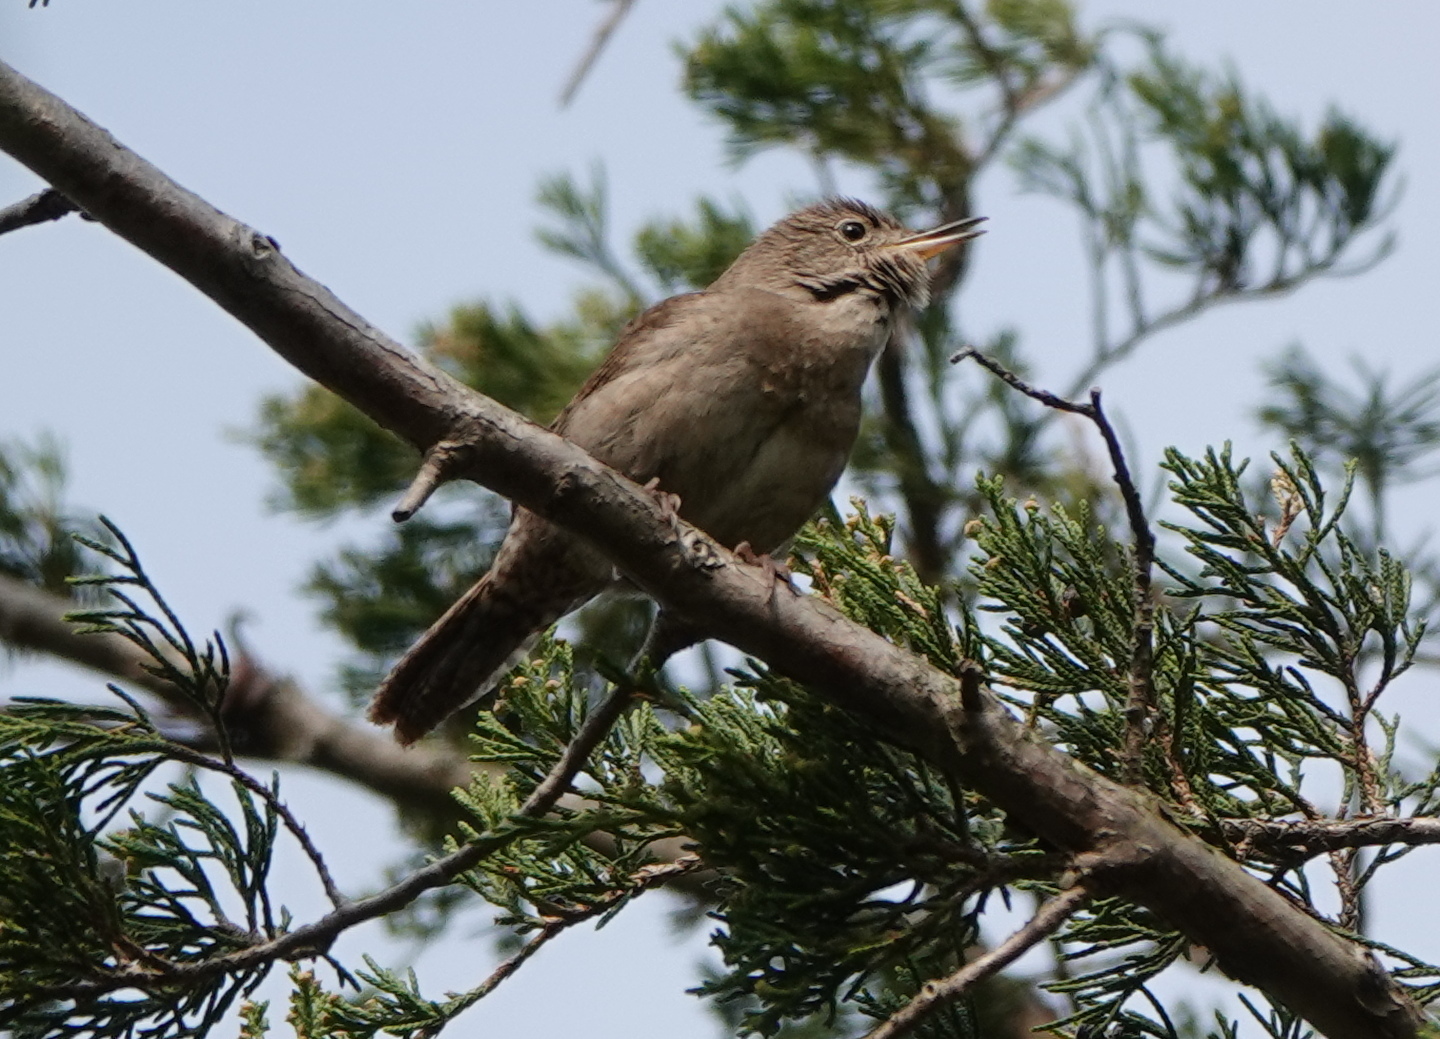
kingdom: Animalia
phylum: Chordata
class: Aves
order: Passeriformes
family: Troglodytidae
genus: Troglodytes
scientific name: Troglodytes aedon
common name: House wren
